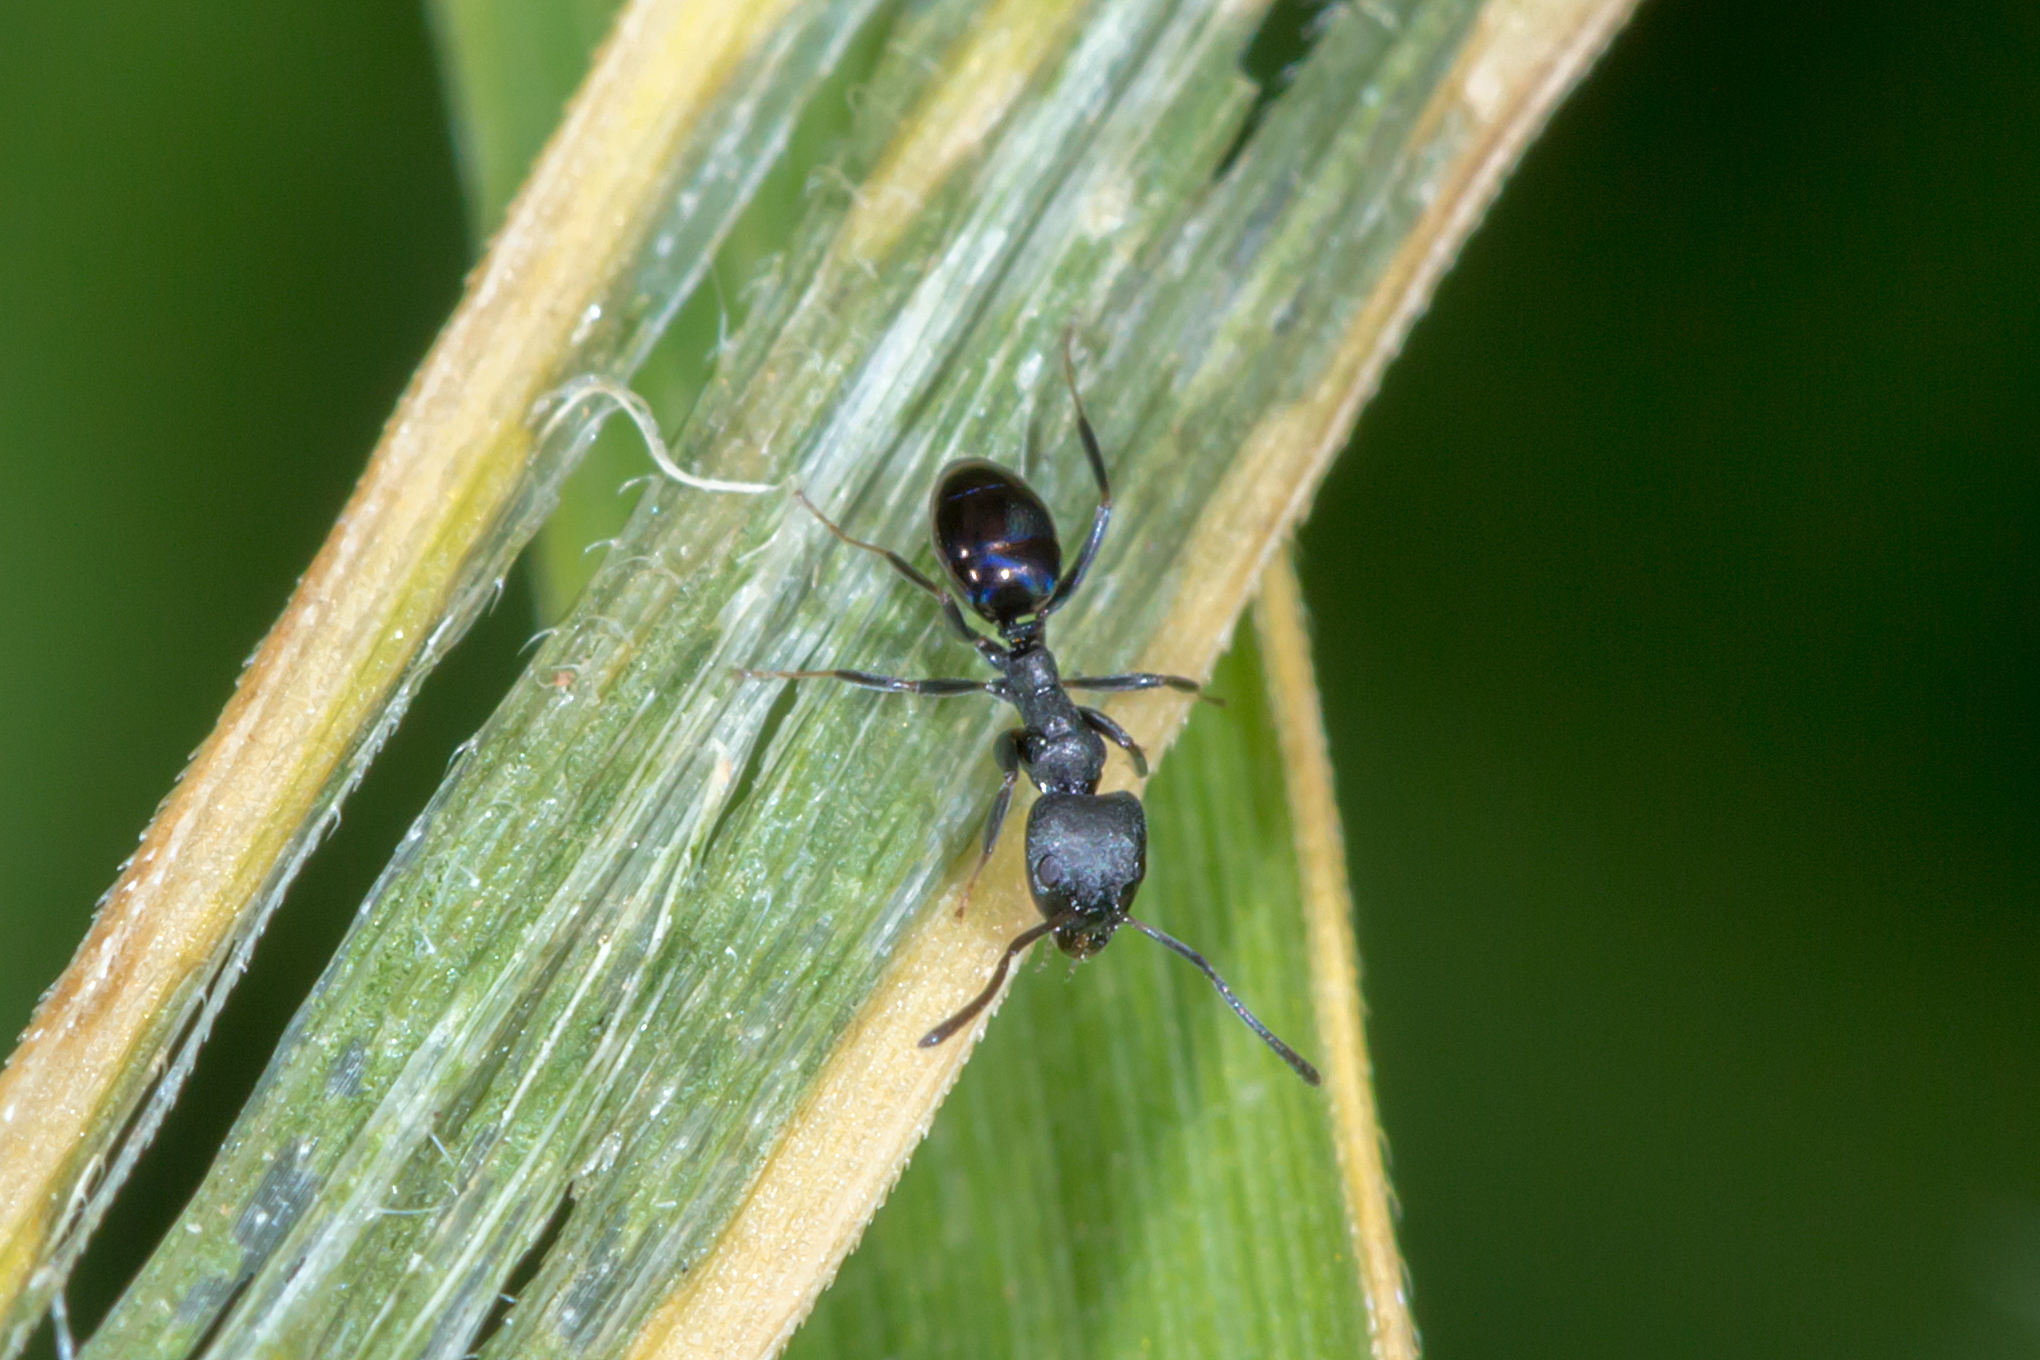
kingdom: Animalia
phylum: Arthropoda
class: Insecta
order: Hymenoptera
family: Formicidae
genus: Ochetellus
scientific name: Ochetellus glaber
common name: Ant
